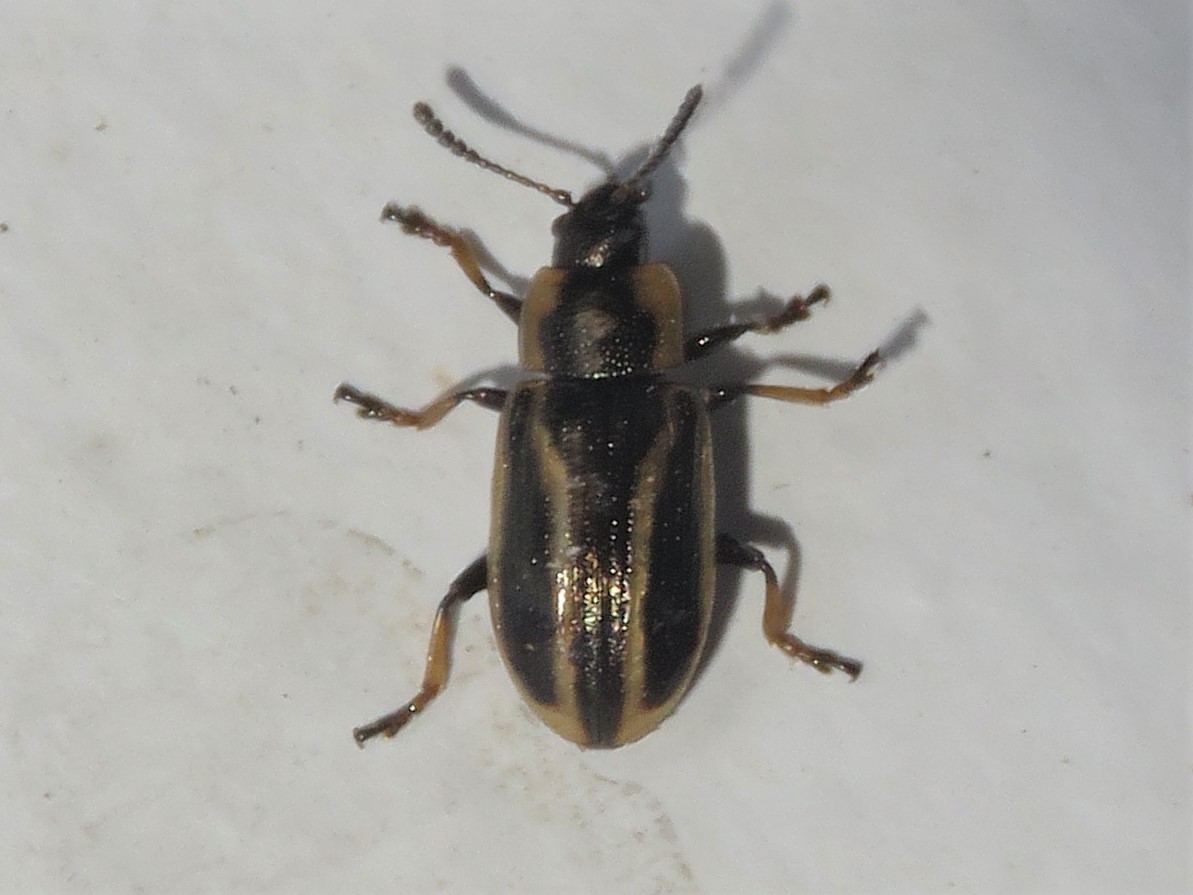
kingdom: Animalia
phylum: Arthropoda
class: Insecta
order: Coleoptera
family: Chrysomelidae
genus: Prasocuris
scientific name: Prasocuris vittata
